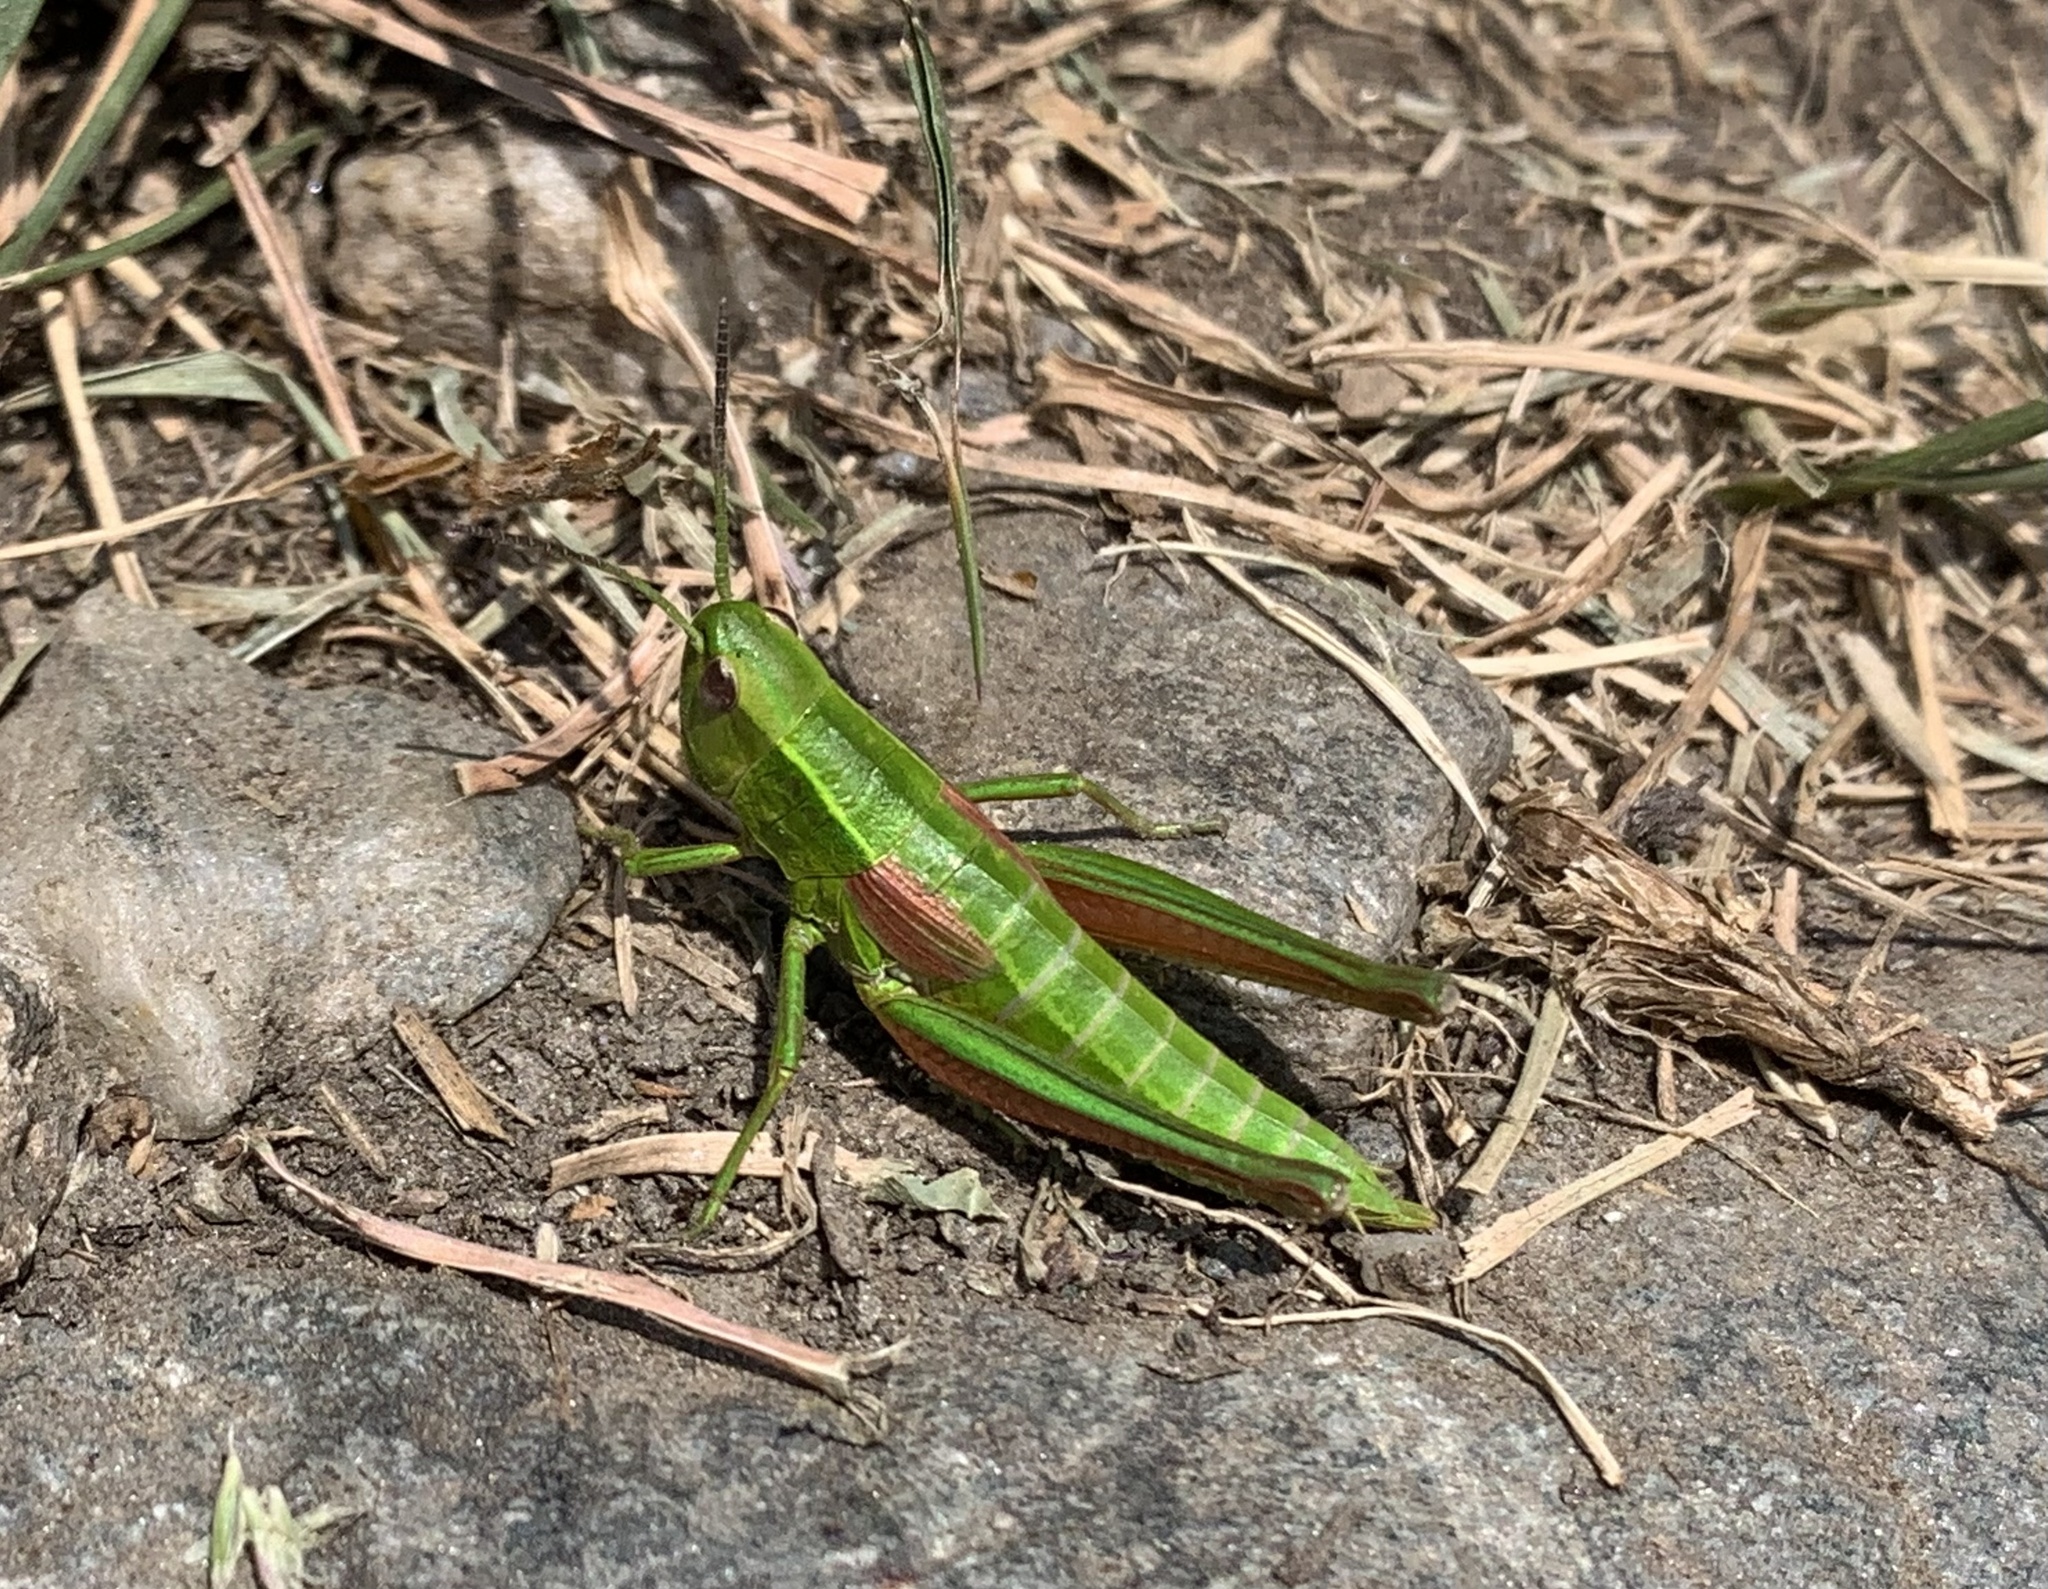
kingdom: Animalia
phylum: Arthropoda
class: Insecta
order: Orthoptera
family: Acrididae
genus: Euthystira
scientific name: Euthystira brachyptera
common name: Small gold grasshopper
